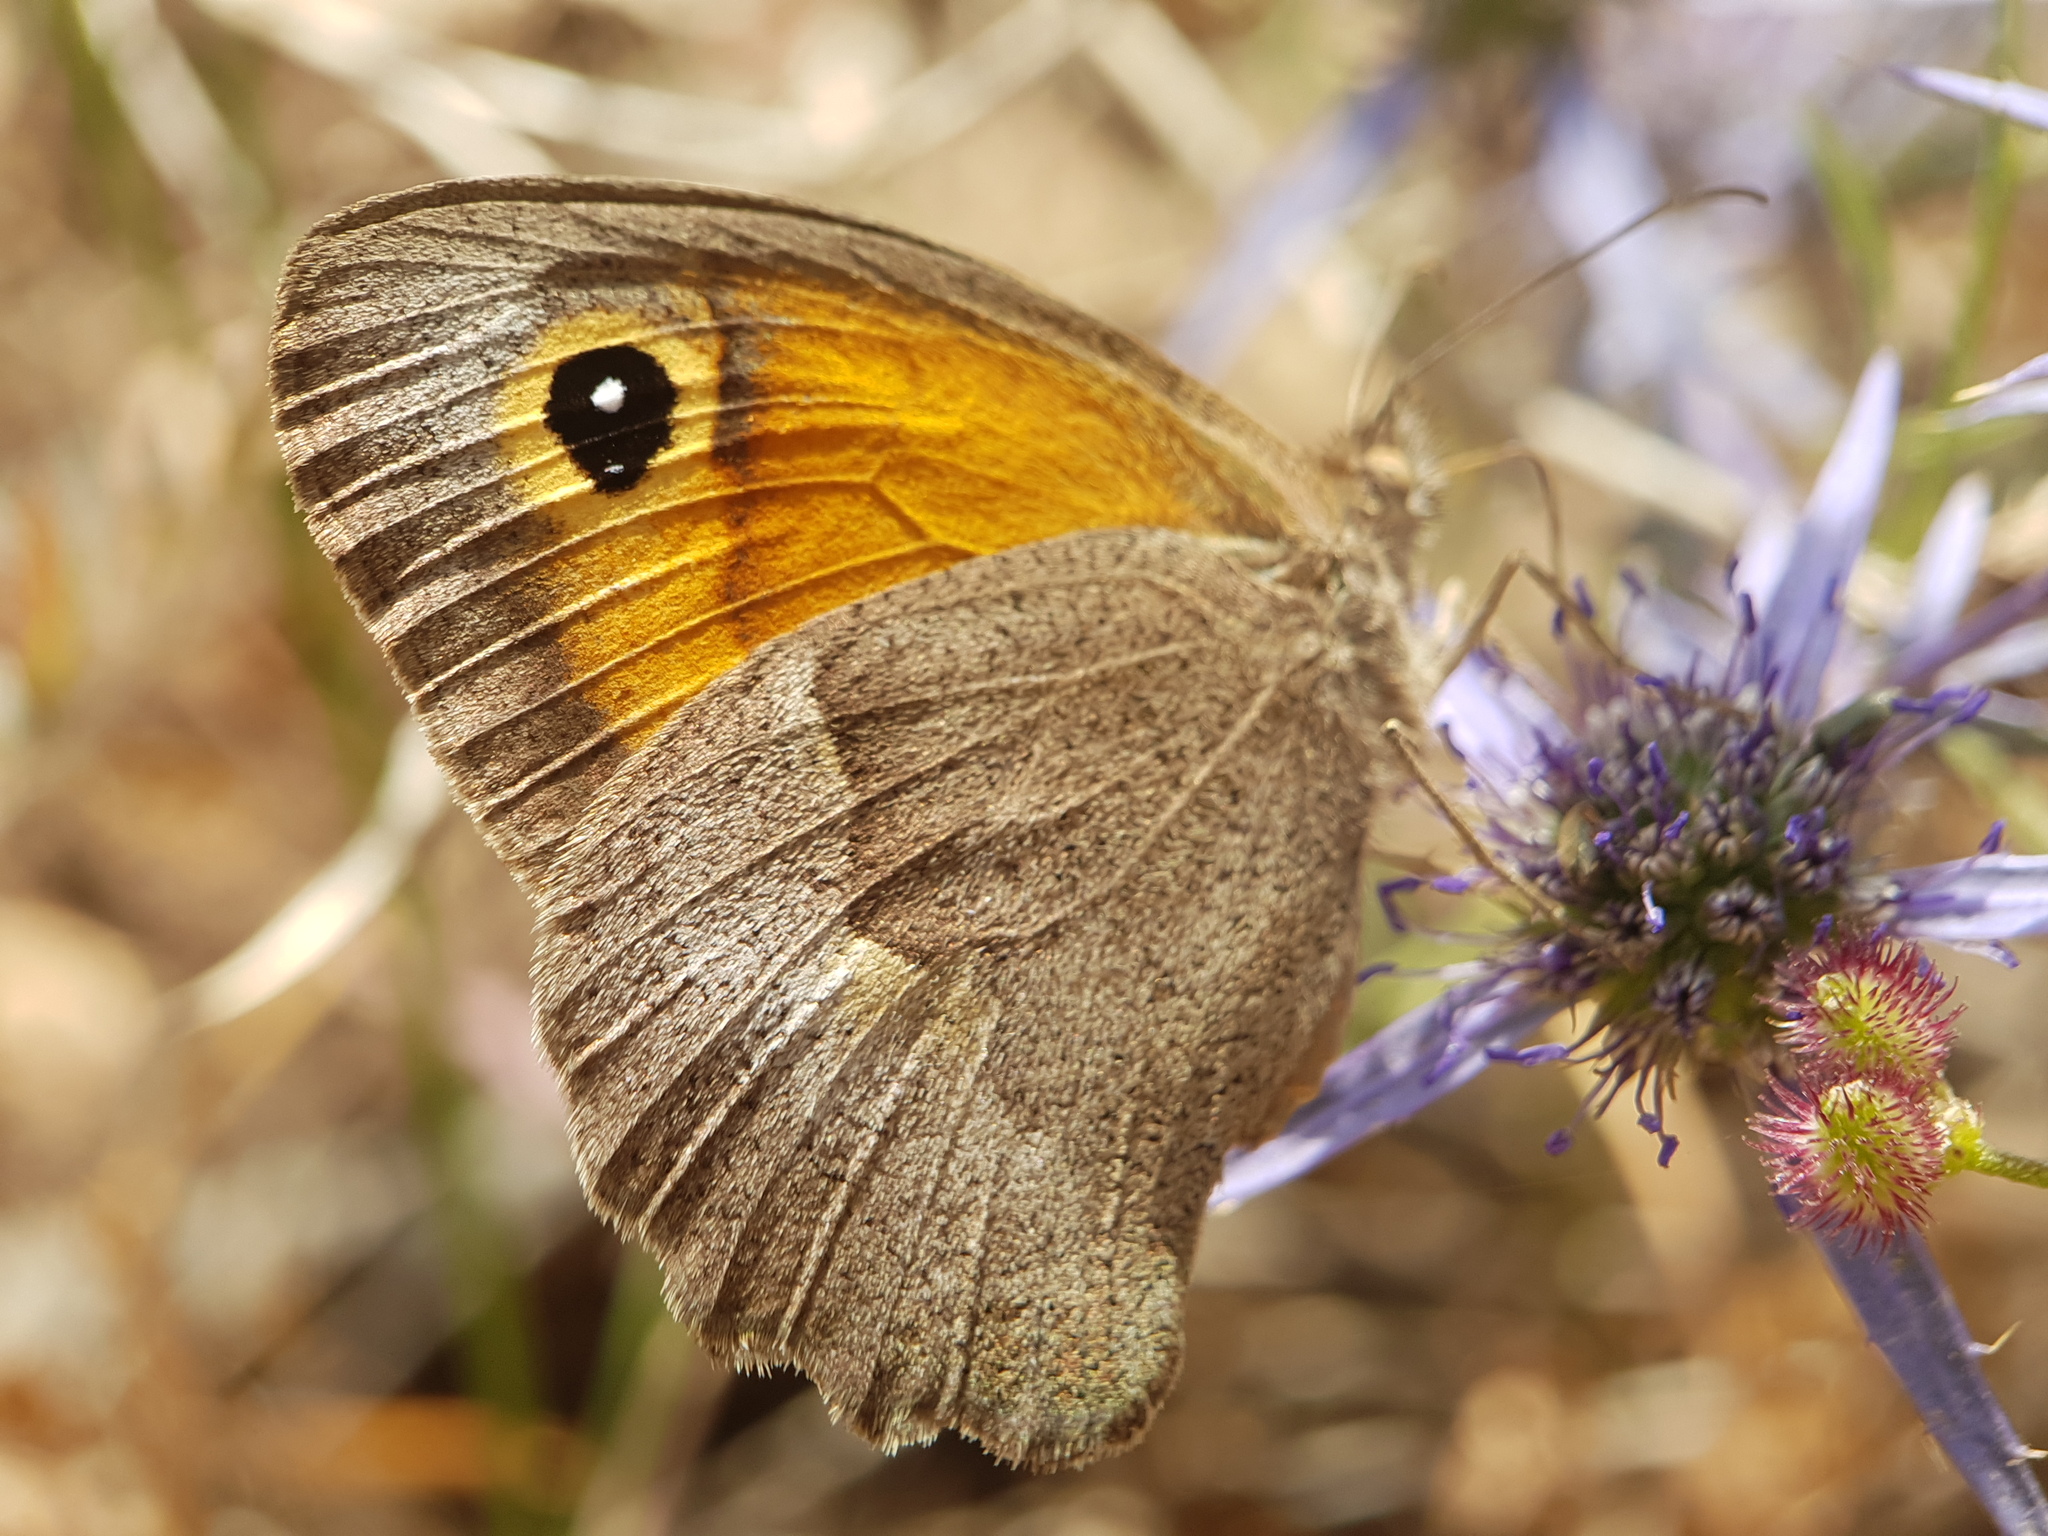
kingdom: Animalia
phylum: Arthropoda
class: Insecta
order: Lepidoptera
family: Nymphalidae
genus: Maniola
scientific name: Maniola telmessia
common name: Persian meadow brown
